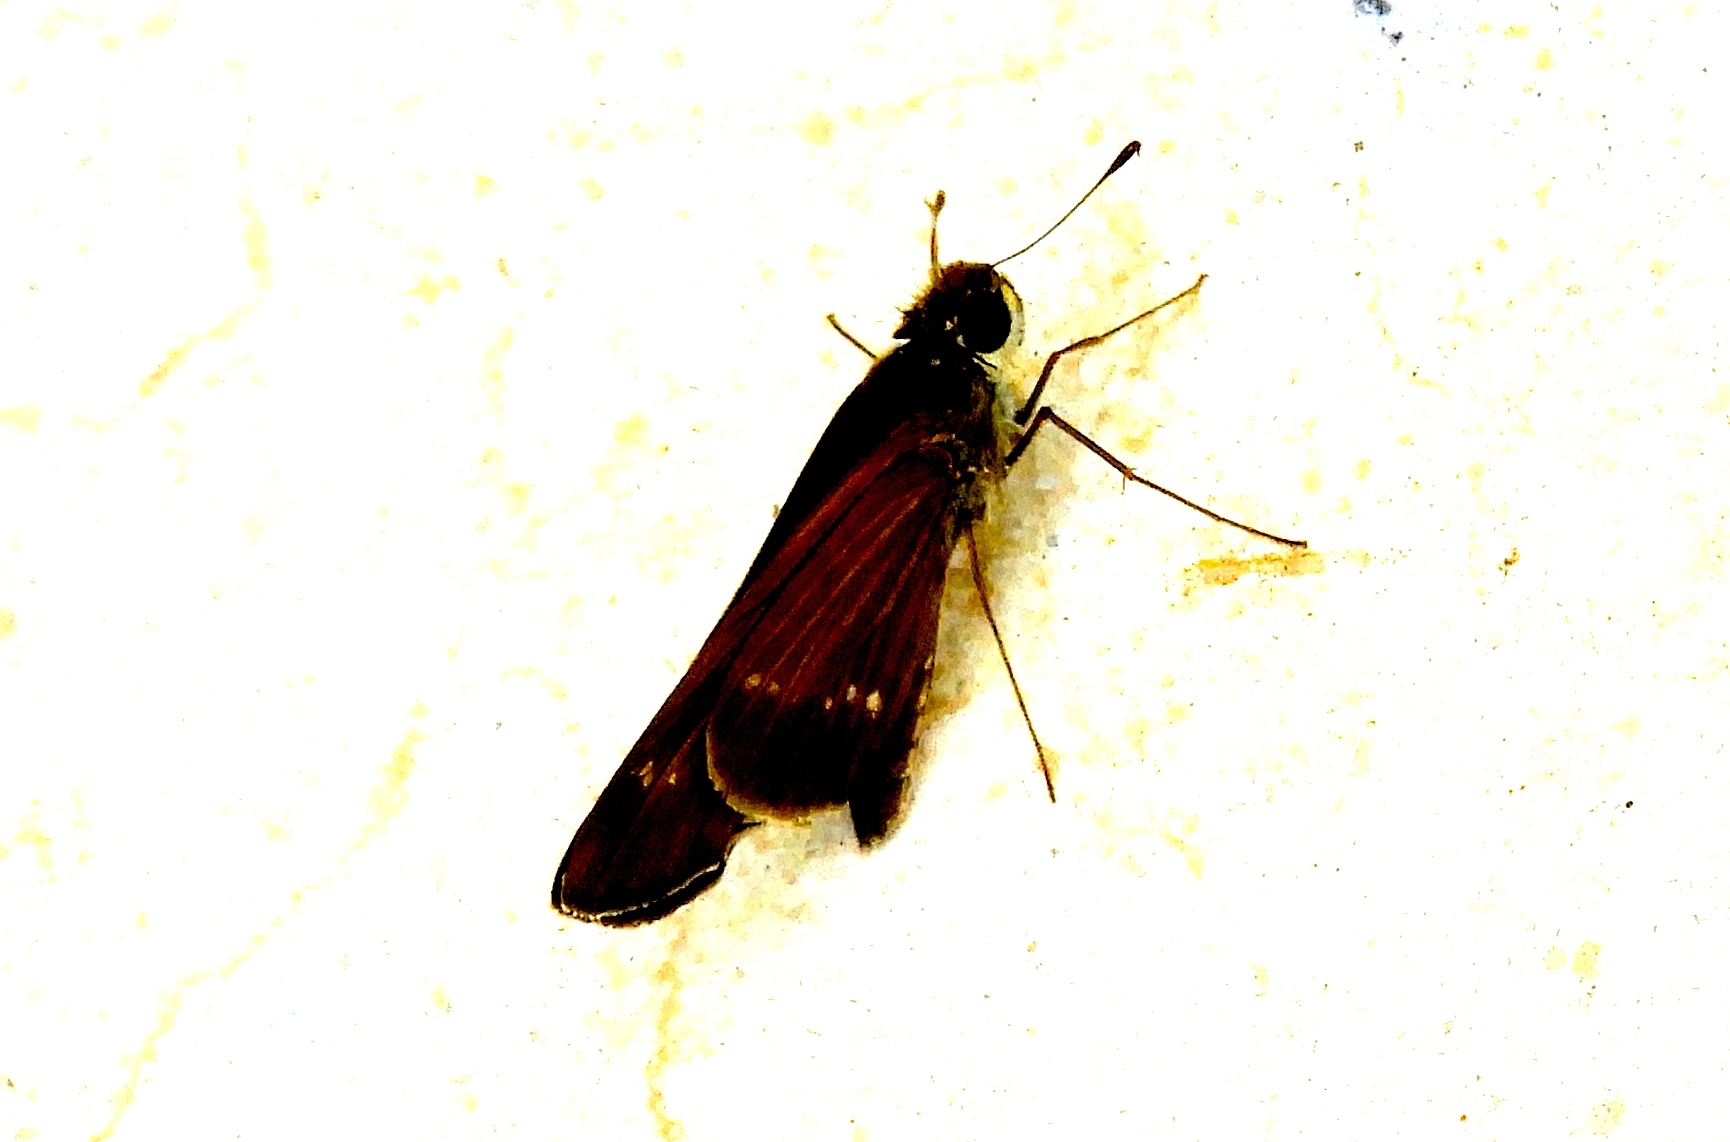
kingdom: Animalia
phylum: Arthropoda
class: Insecta
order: Lepidoptera
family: Hesperiidae
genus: Turesis
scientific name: Turesis lucas
